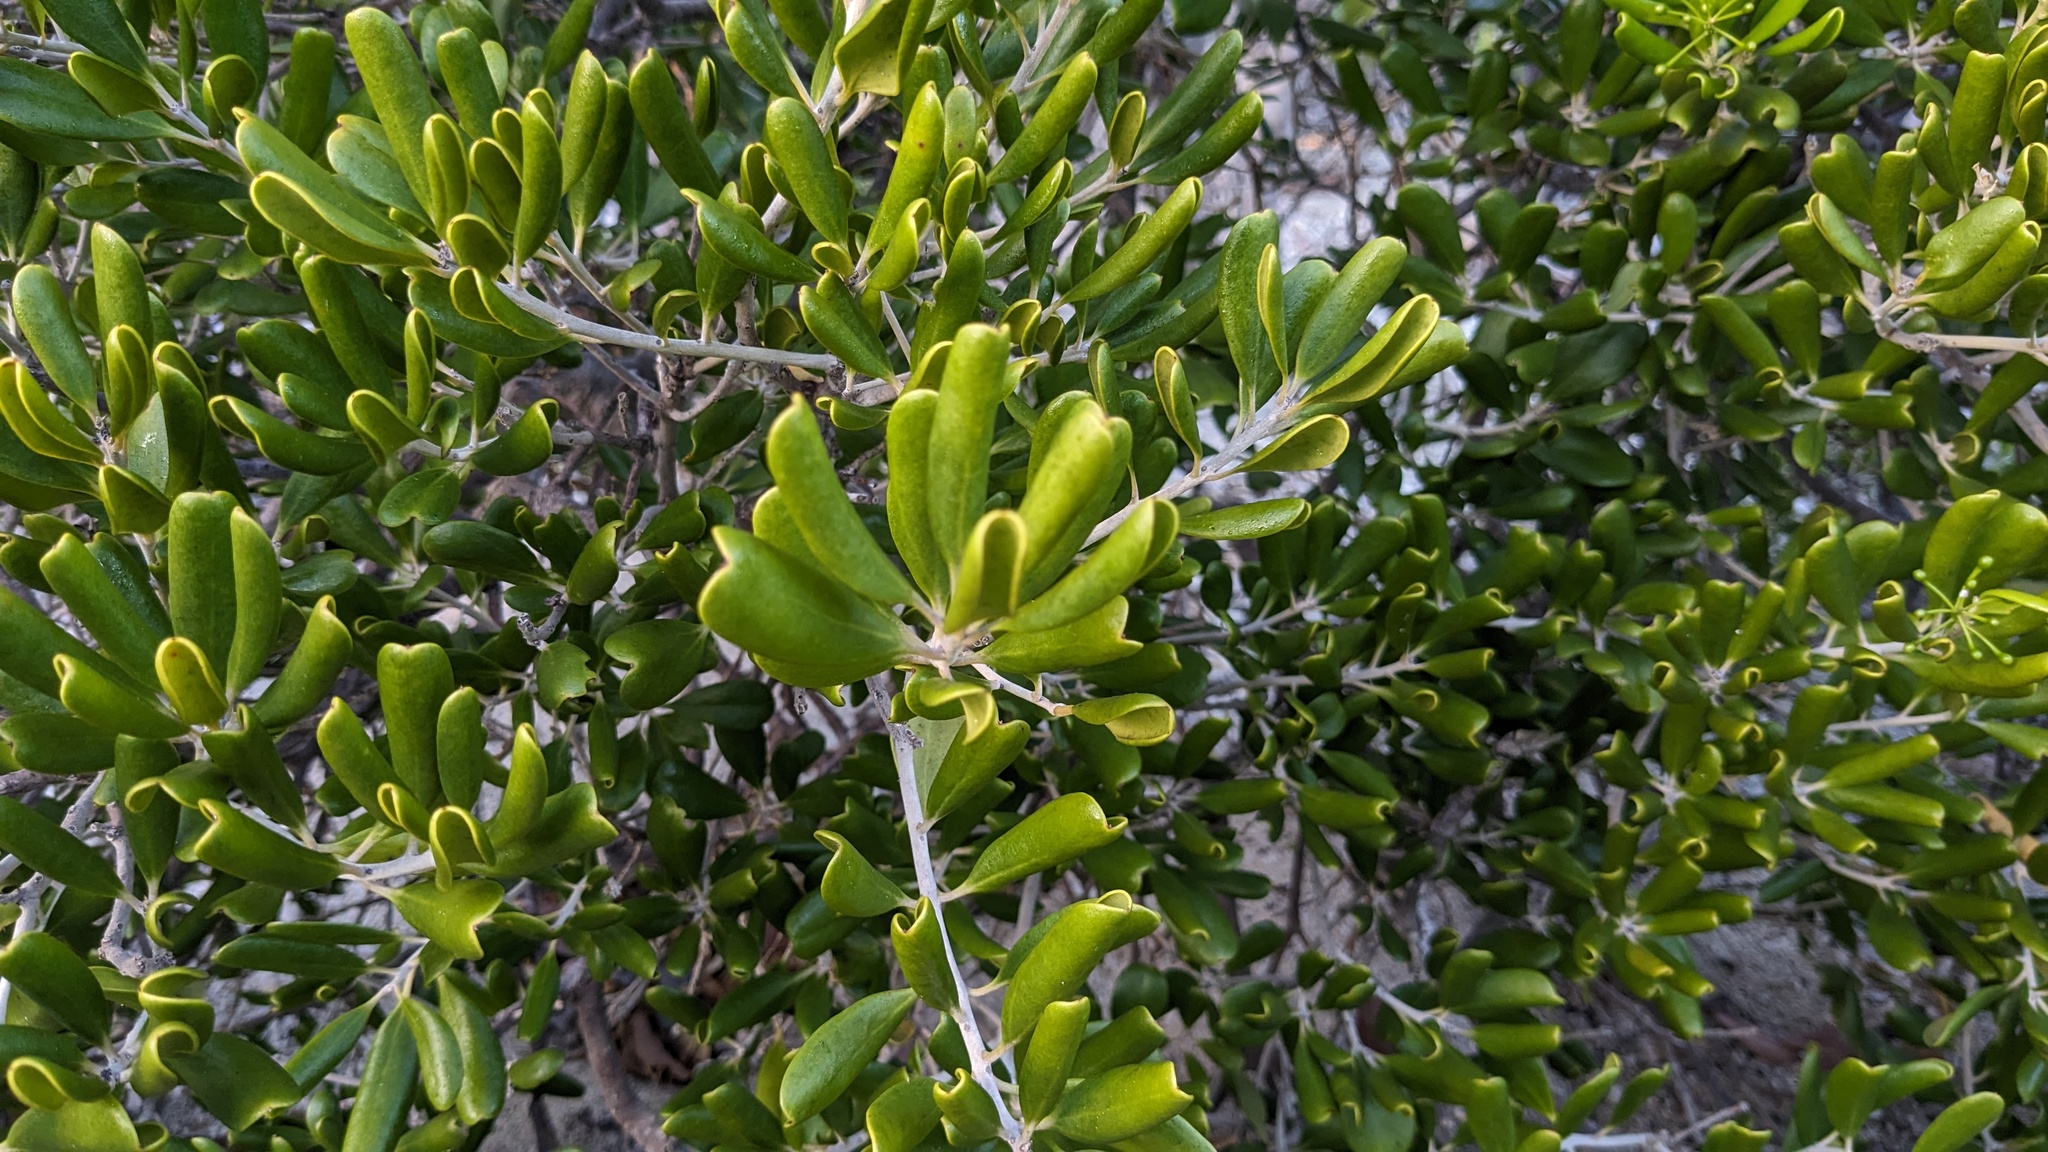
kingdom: Plantae
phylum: Tracheophyta
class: Magnoliopsida
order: Ericales
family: Primulaceae
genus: Jacquinia
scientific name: Jacquinia keyensis
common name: Joebush
